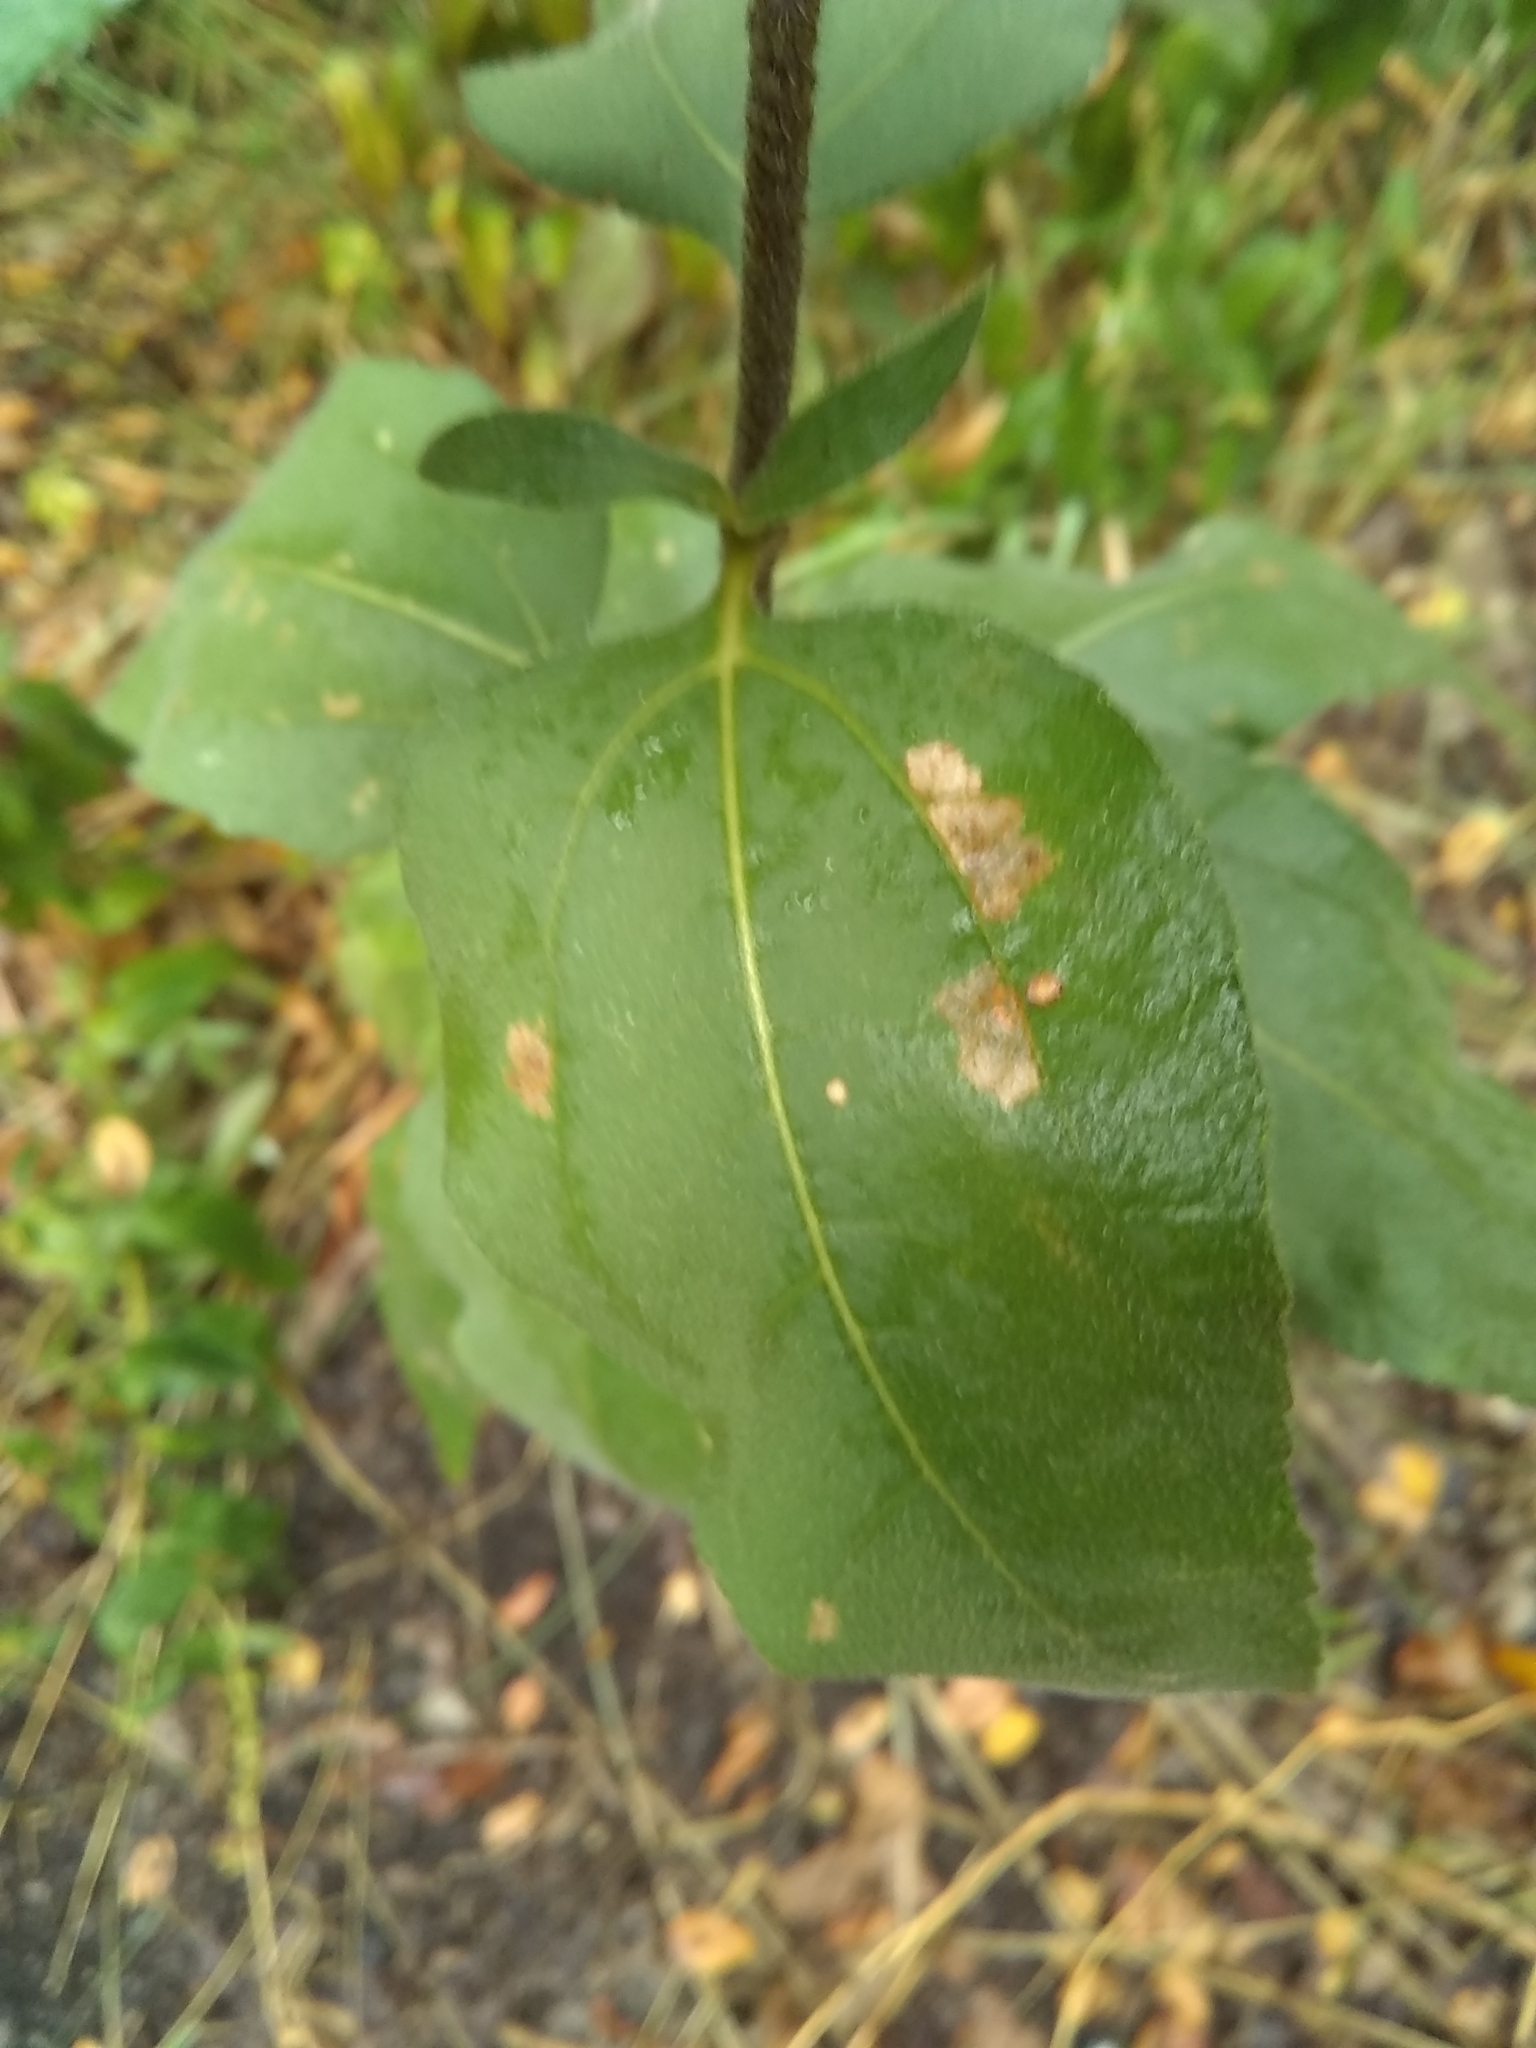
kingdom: Plantae
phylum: Tracheophyta
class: Magnoliopsida
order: Asterales
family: Asteraceae
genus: Helianthus
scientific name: Helianthus hirsutus
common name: Hairy sunflower
